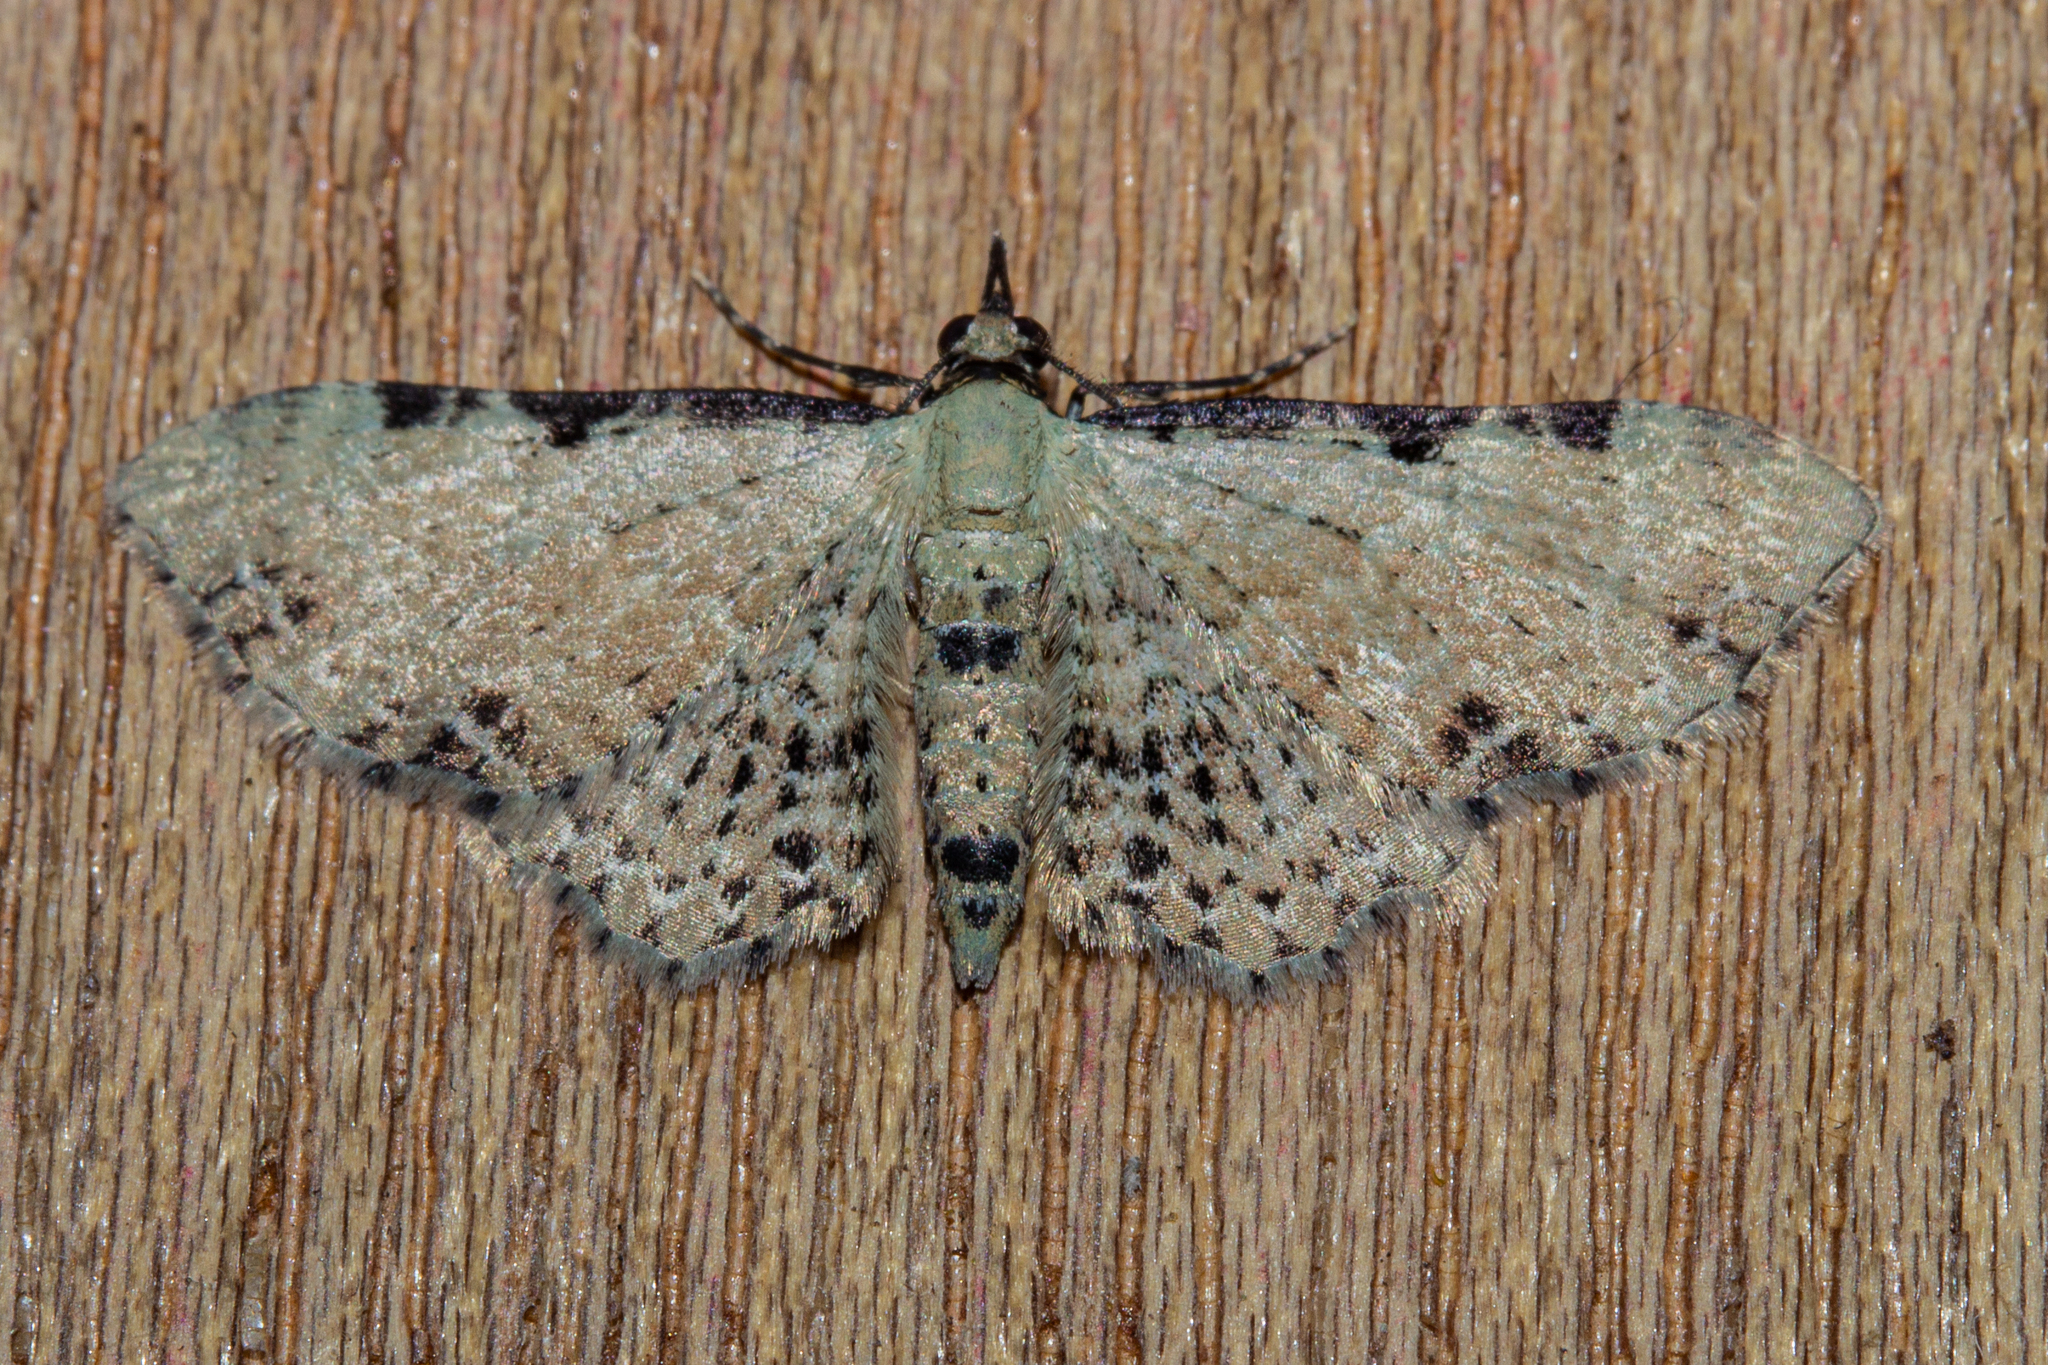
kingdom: Animalia
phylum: Arthropoda
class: Insecta
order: Lepidoptera
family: Geometridae
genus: Pasiphila
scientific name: Pasiphila fumipalpata
